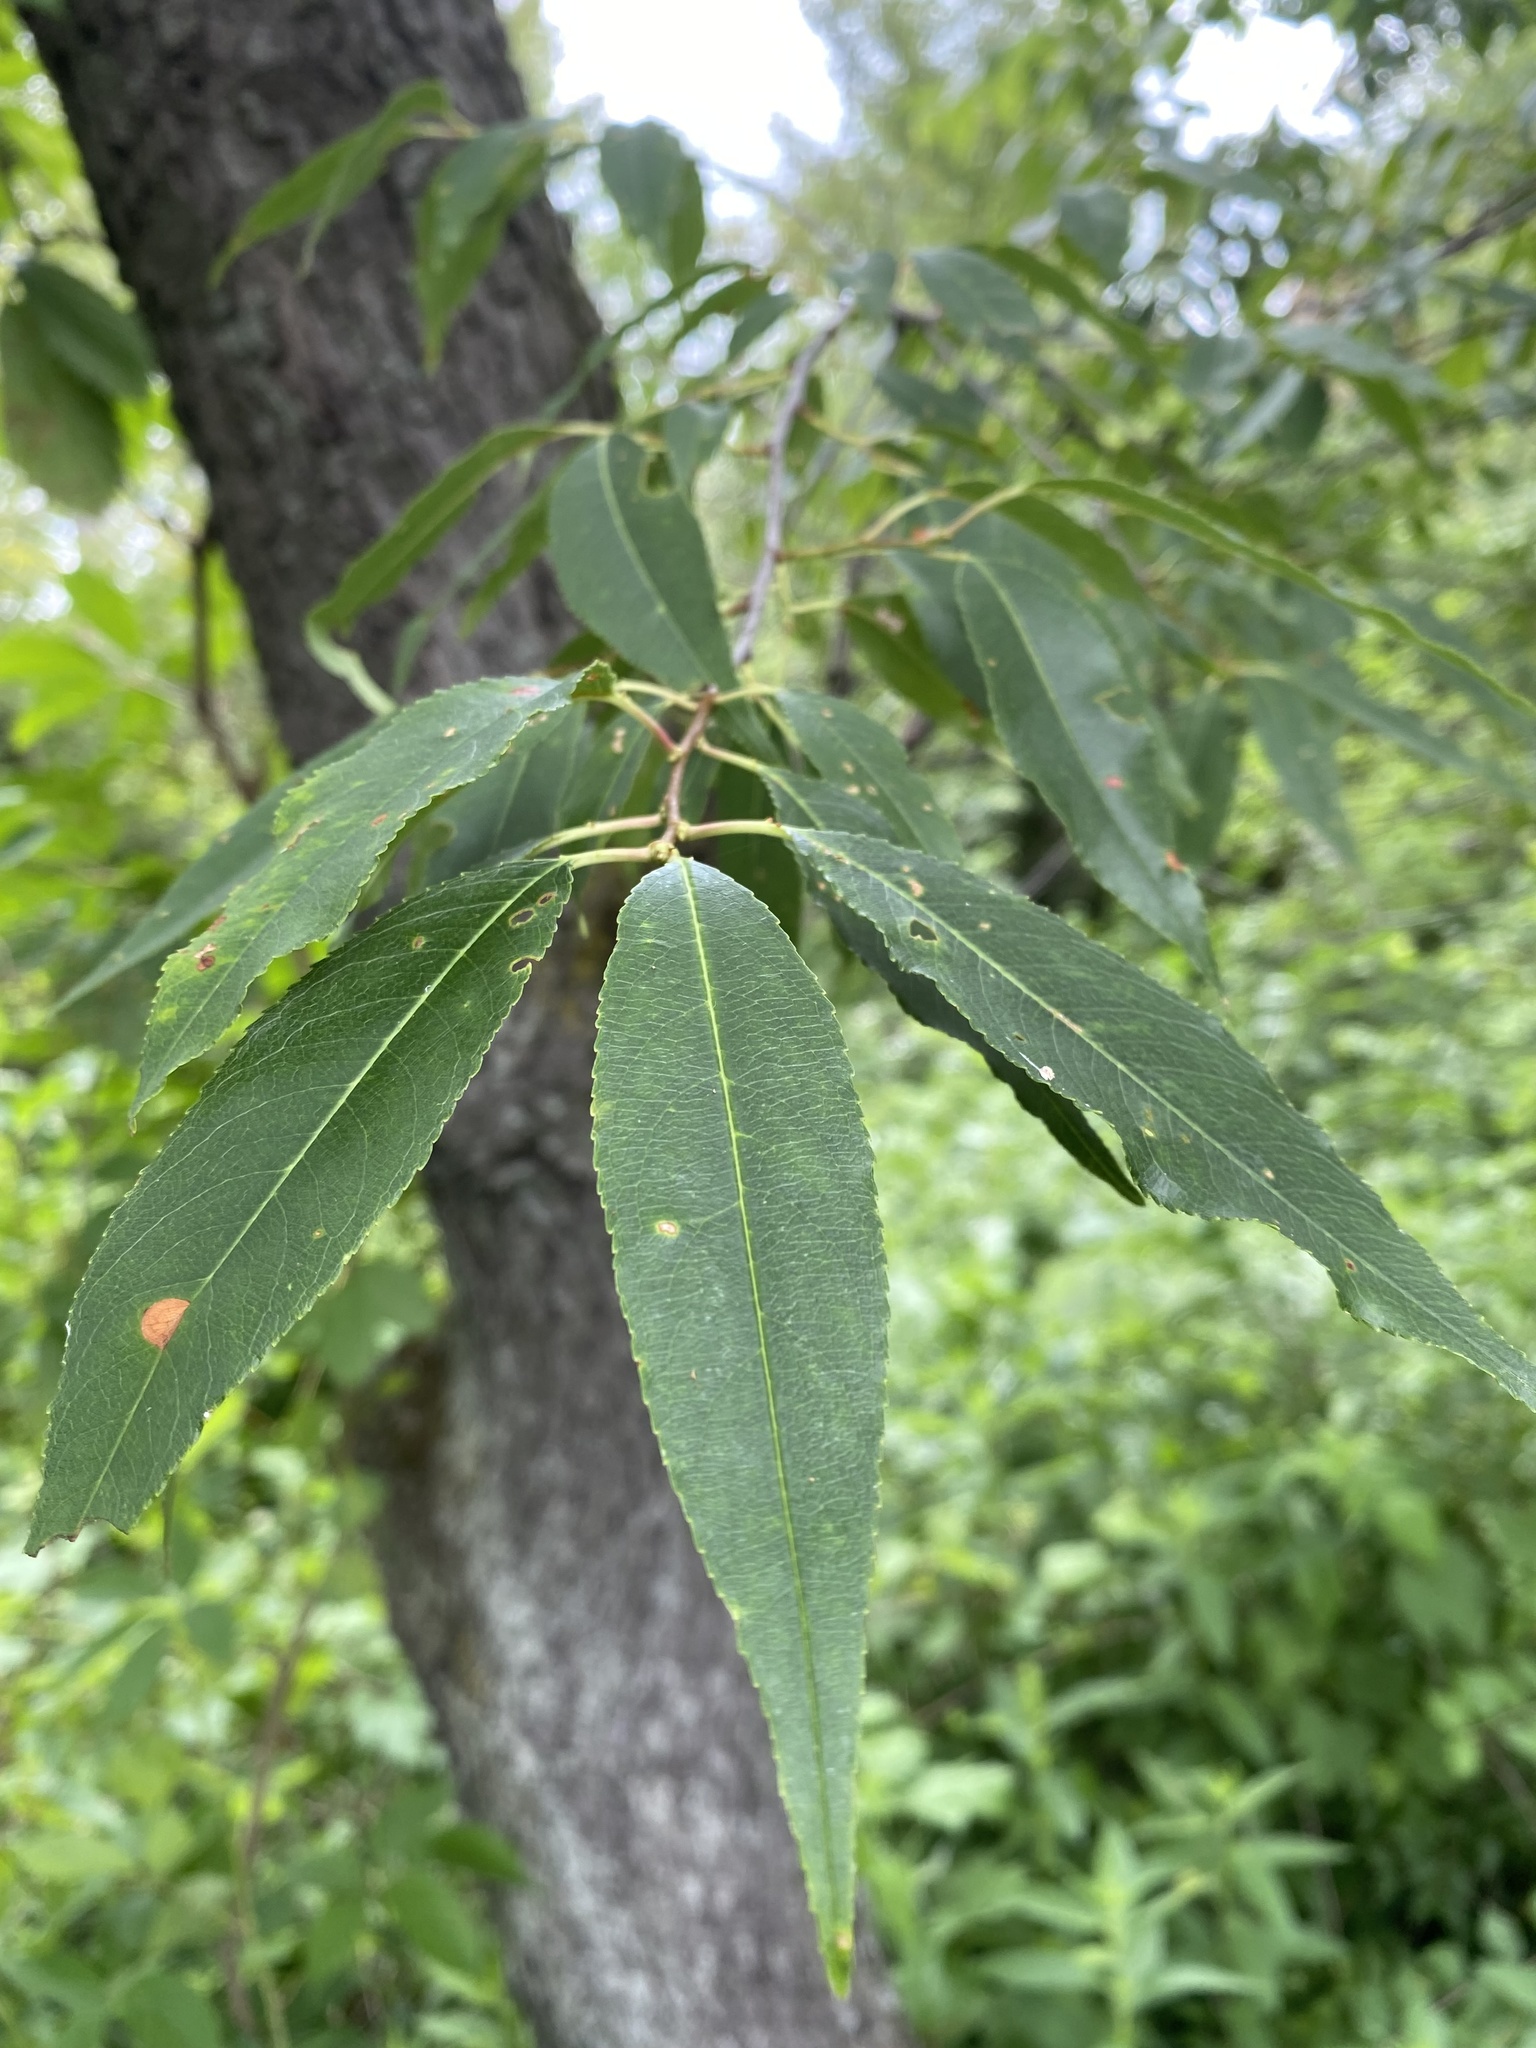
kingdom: Plantae
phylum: Tracheophyta
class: Magnoliopsida
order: Rosales
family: Rosaceae
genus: Prunus
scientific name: Prunus serotina
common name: Black cherry
